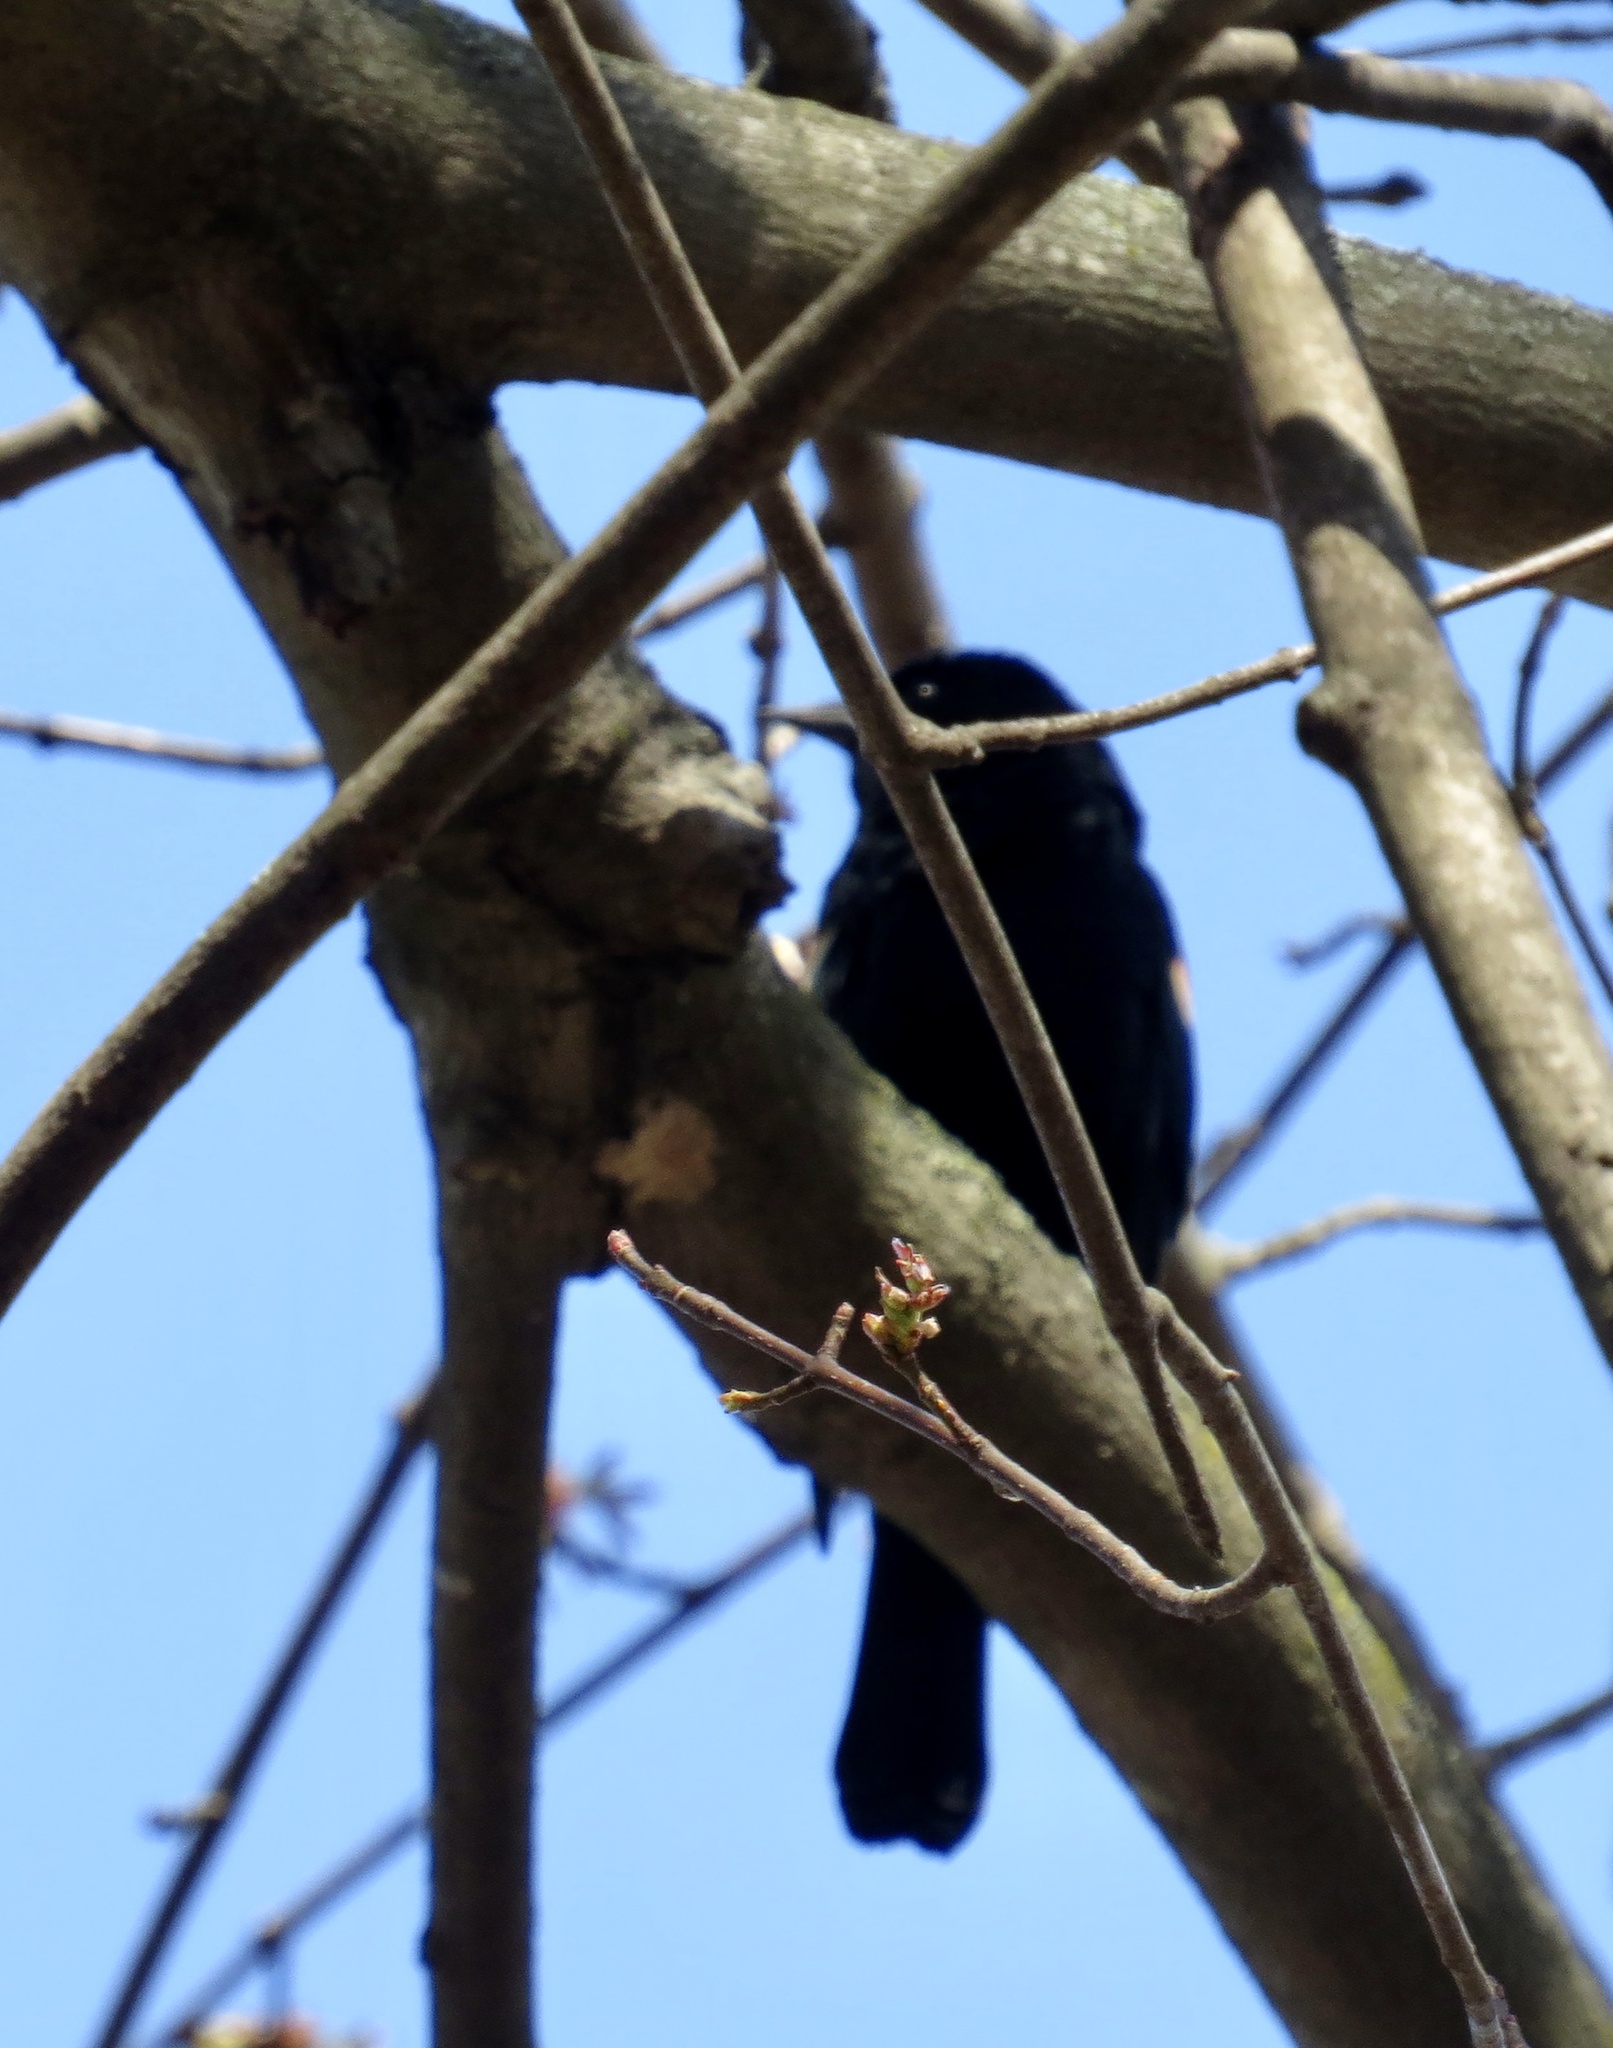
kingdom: Animalia
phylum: Chordata
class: Aves
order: Passeriformes
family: Icteridae
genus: Agelaius
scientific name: Agelaius phoeniceus
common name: Red-winged blackbird
